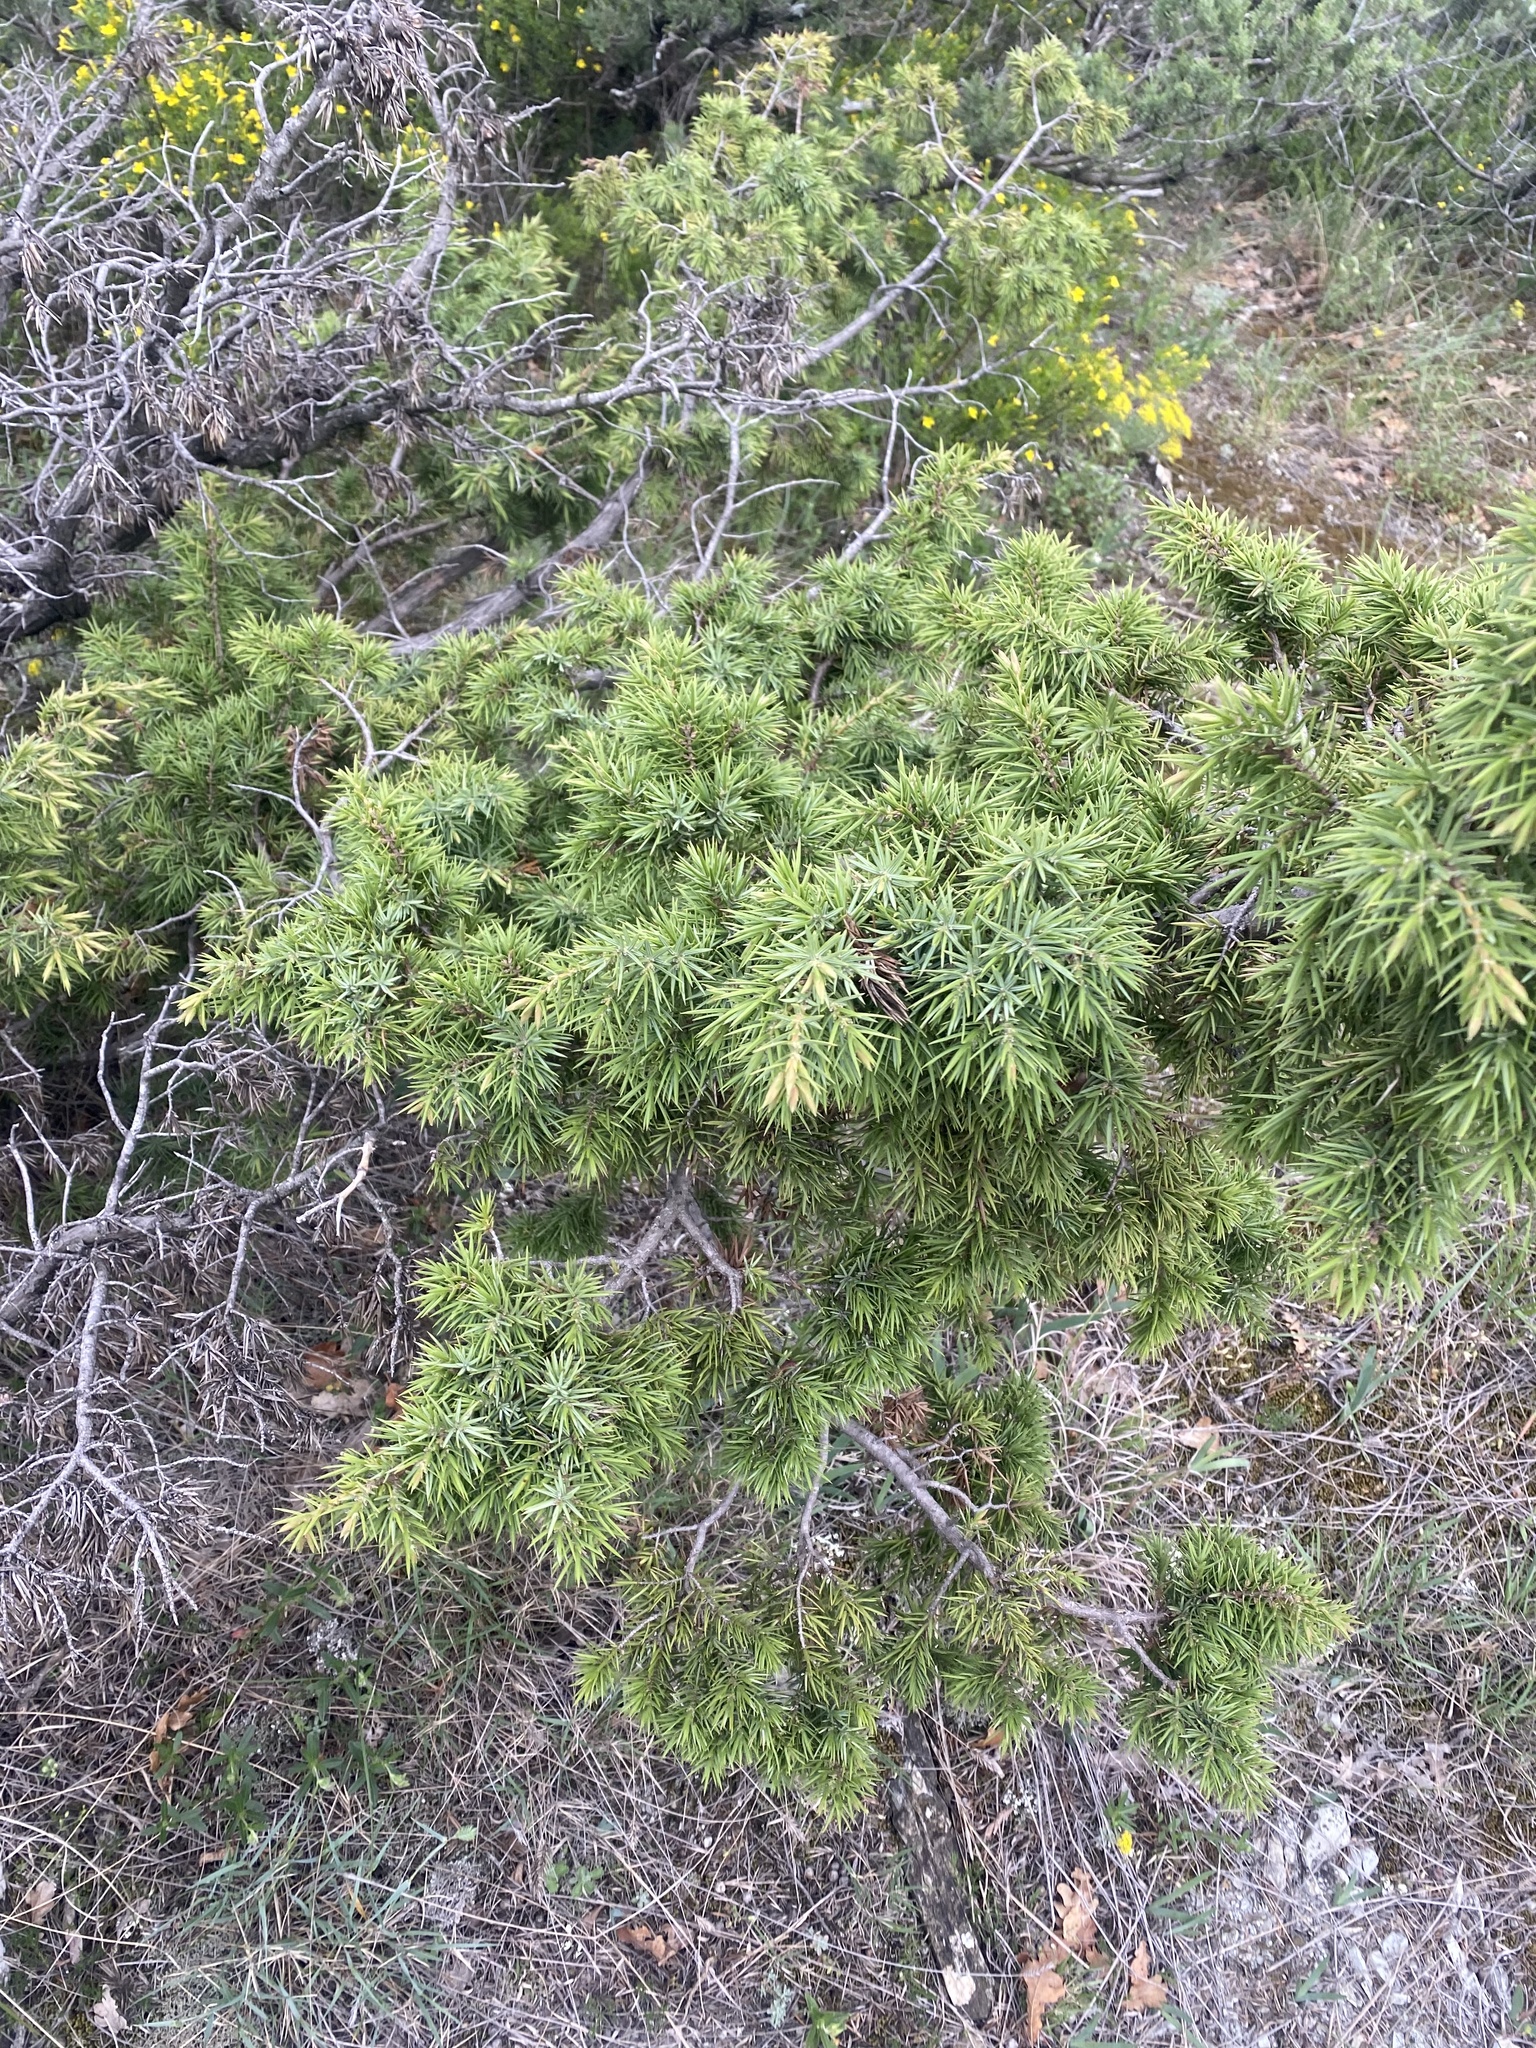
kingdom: Plantae
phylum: Tracheophyta
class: Pinopsida
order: Pinales
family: Cupressaceae
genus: Juniperus
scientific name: Juniperus oxycedrus
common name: Prickly juniper
